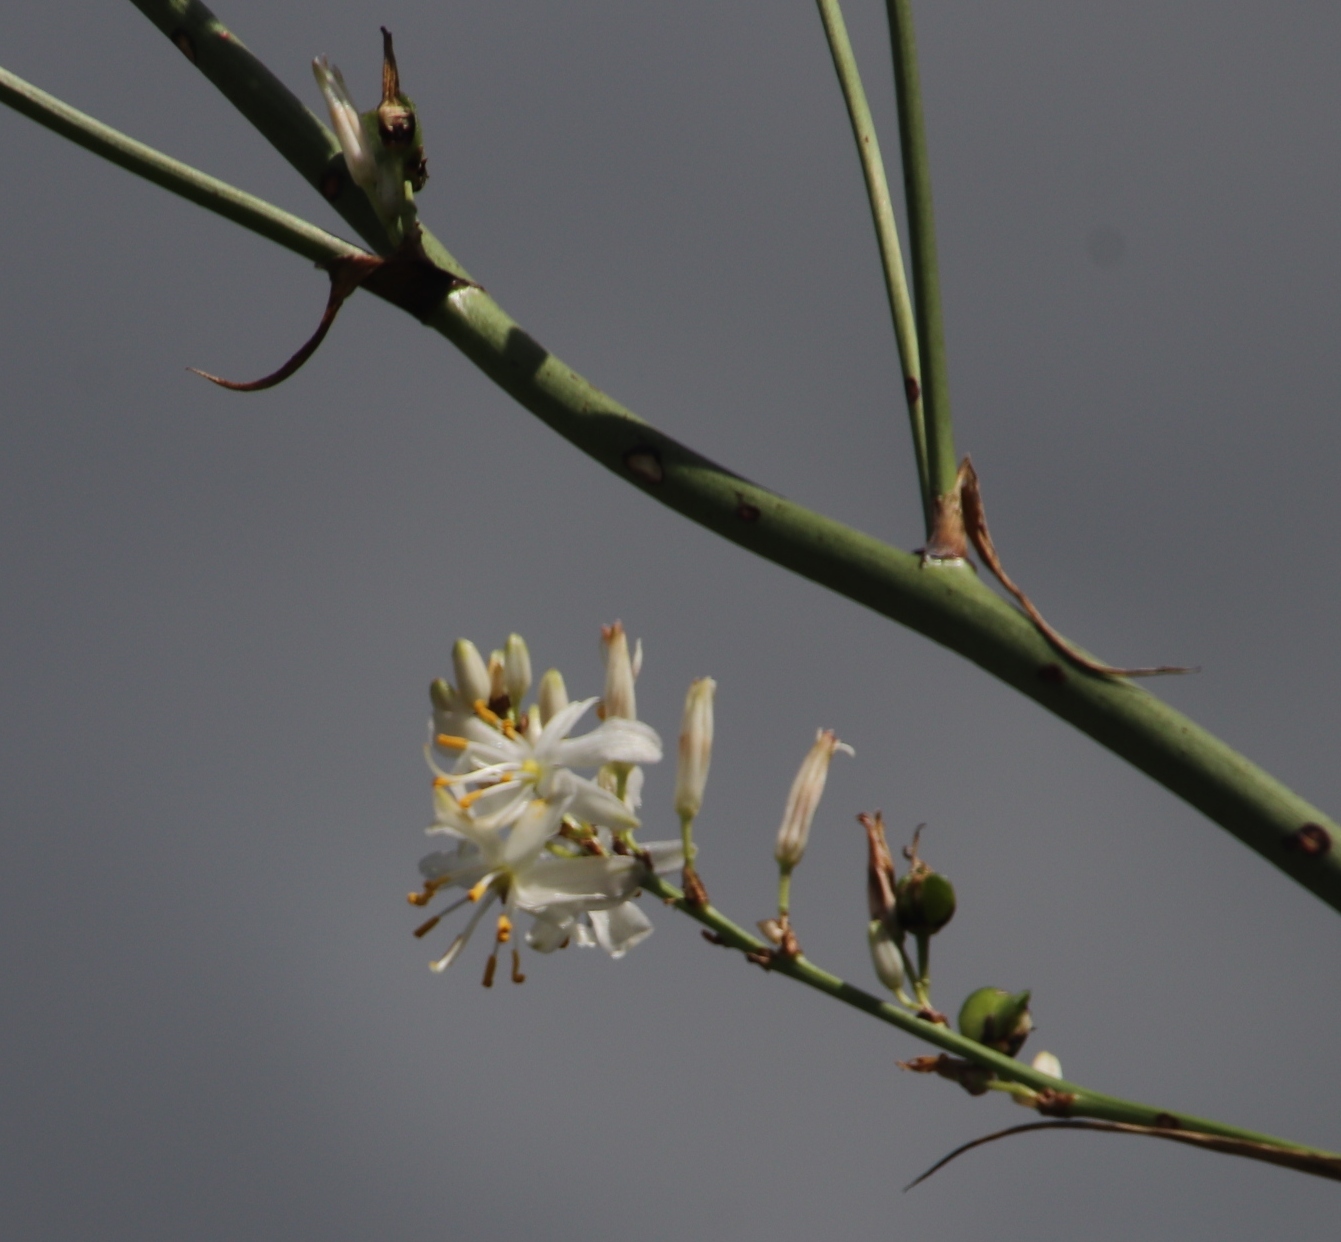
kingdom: Plantae
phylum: Tracheophyta
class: Liliopsida
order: Asparagales
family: Asparagaceae
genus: Chlorophytum
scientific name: Chlorophytum krookianum
